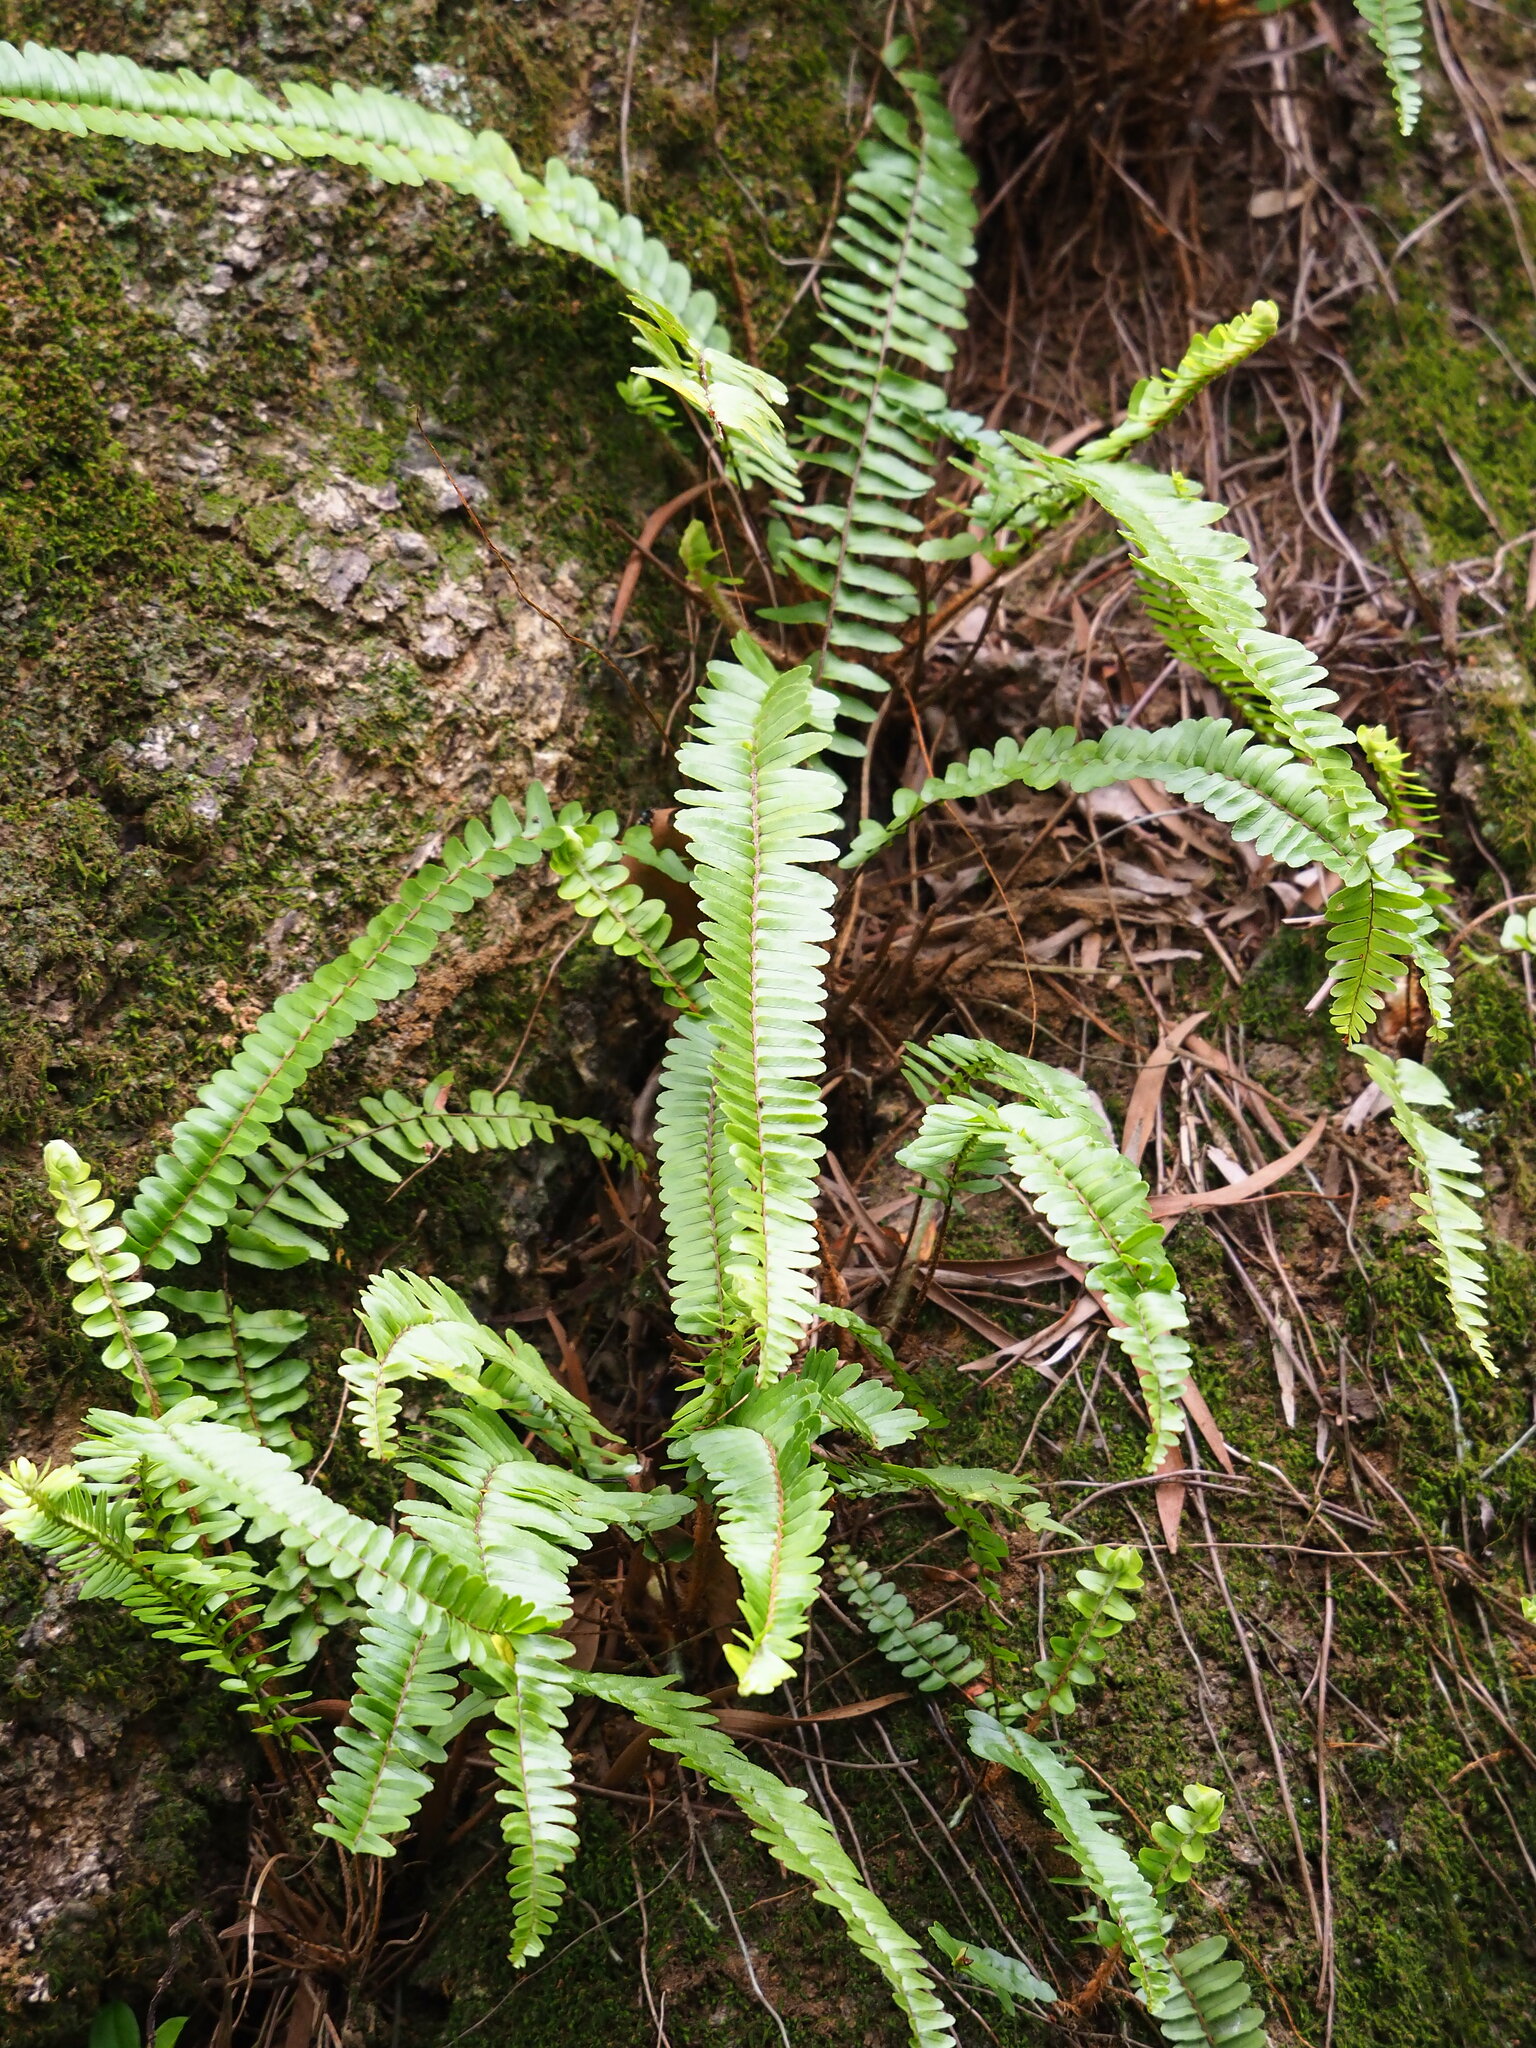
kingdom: Plantae
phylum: Tracheophyta
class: Polypodiopsida
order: Polypodiales
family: Nephrolepidaceae
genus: Nephrolepis
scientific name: Nephrolepis cordifolia
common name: Narrow swordfern
